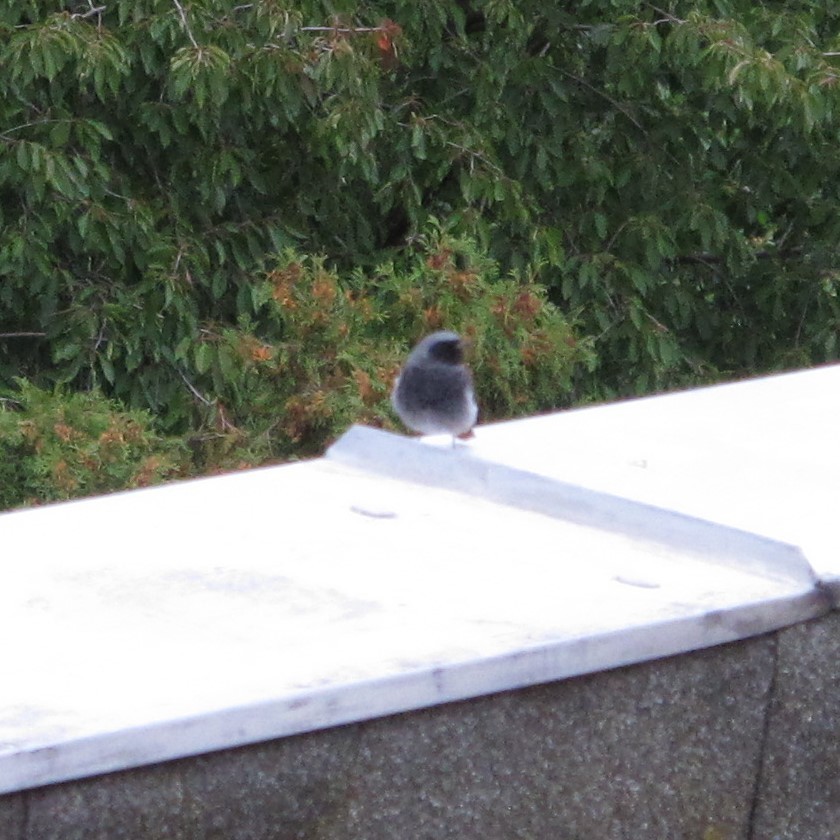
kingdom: Animalia
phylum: Chordata
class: Aves
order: Passeriformes
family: Muscicapidae
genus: Phoenicurus
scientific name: Phoenicurus ochruros
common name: Black redstart
